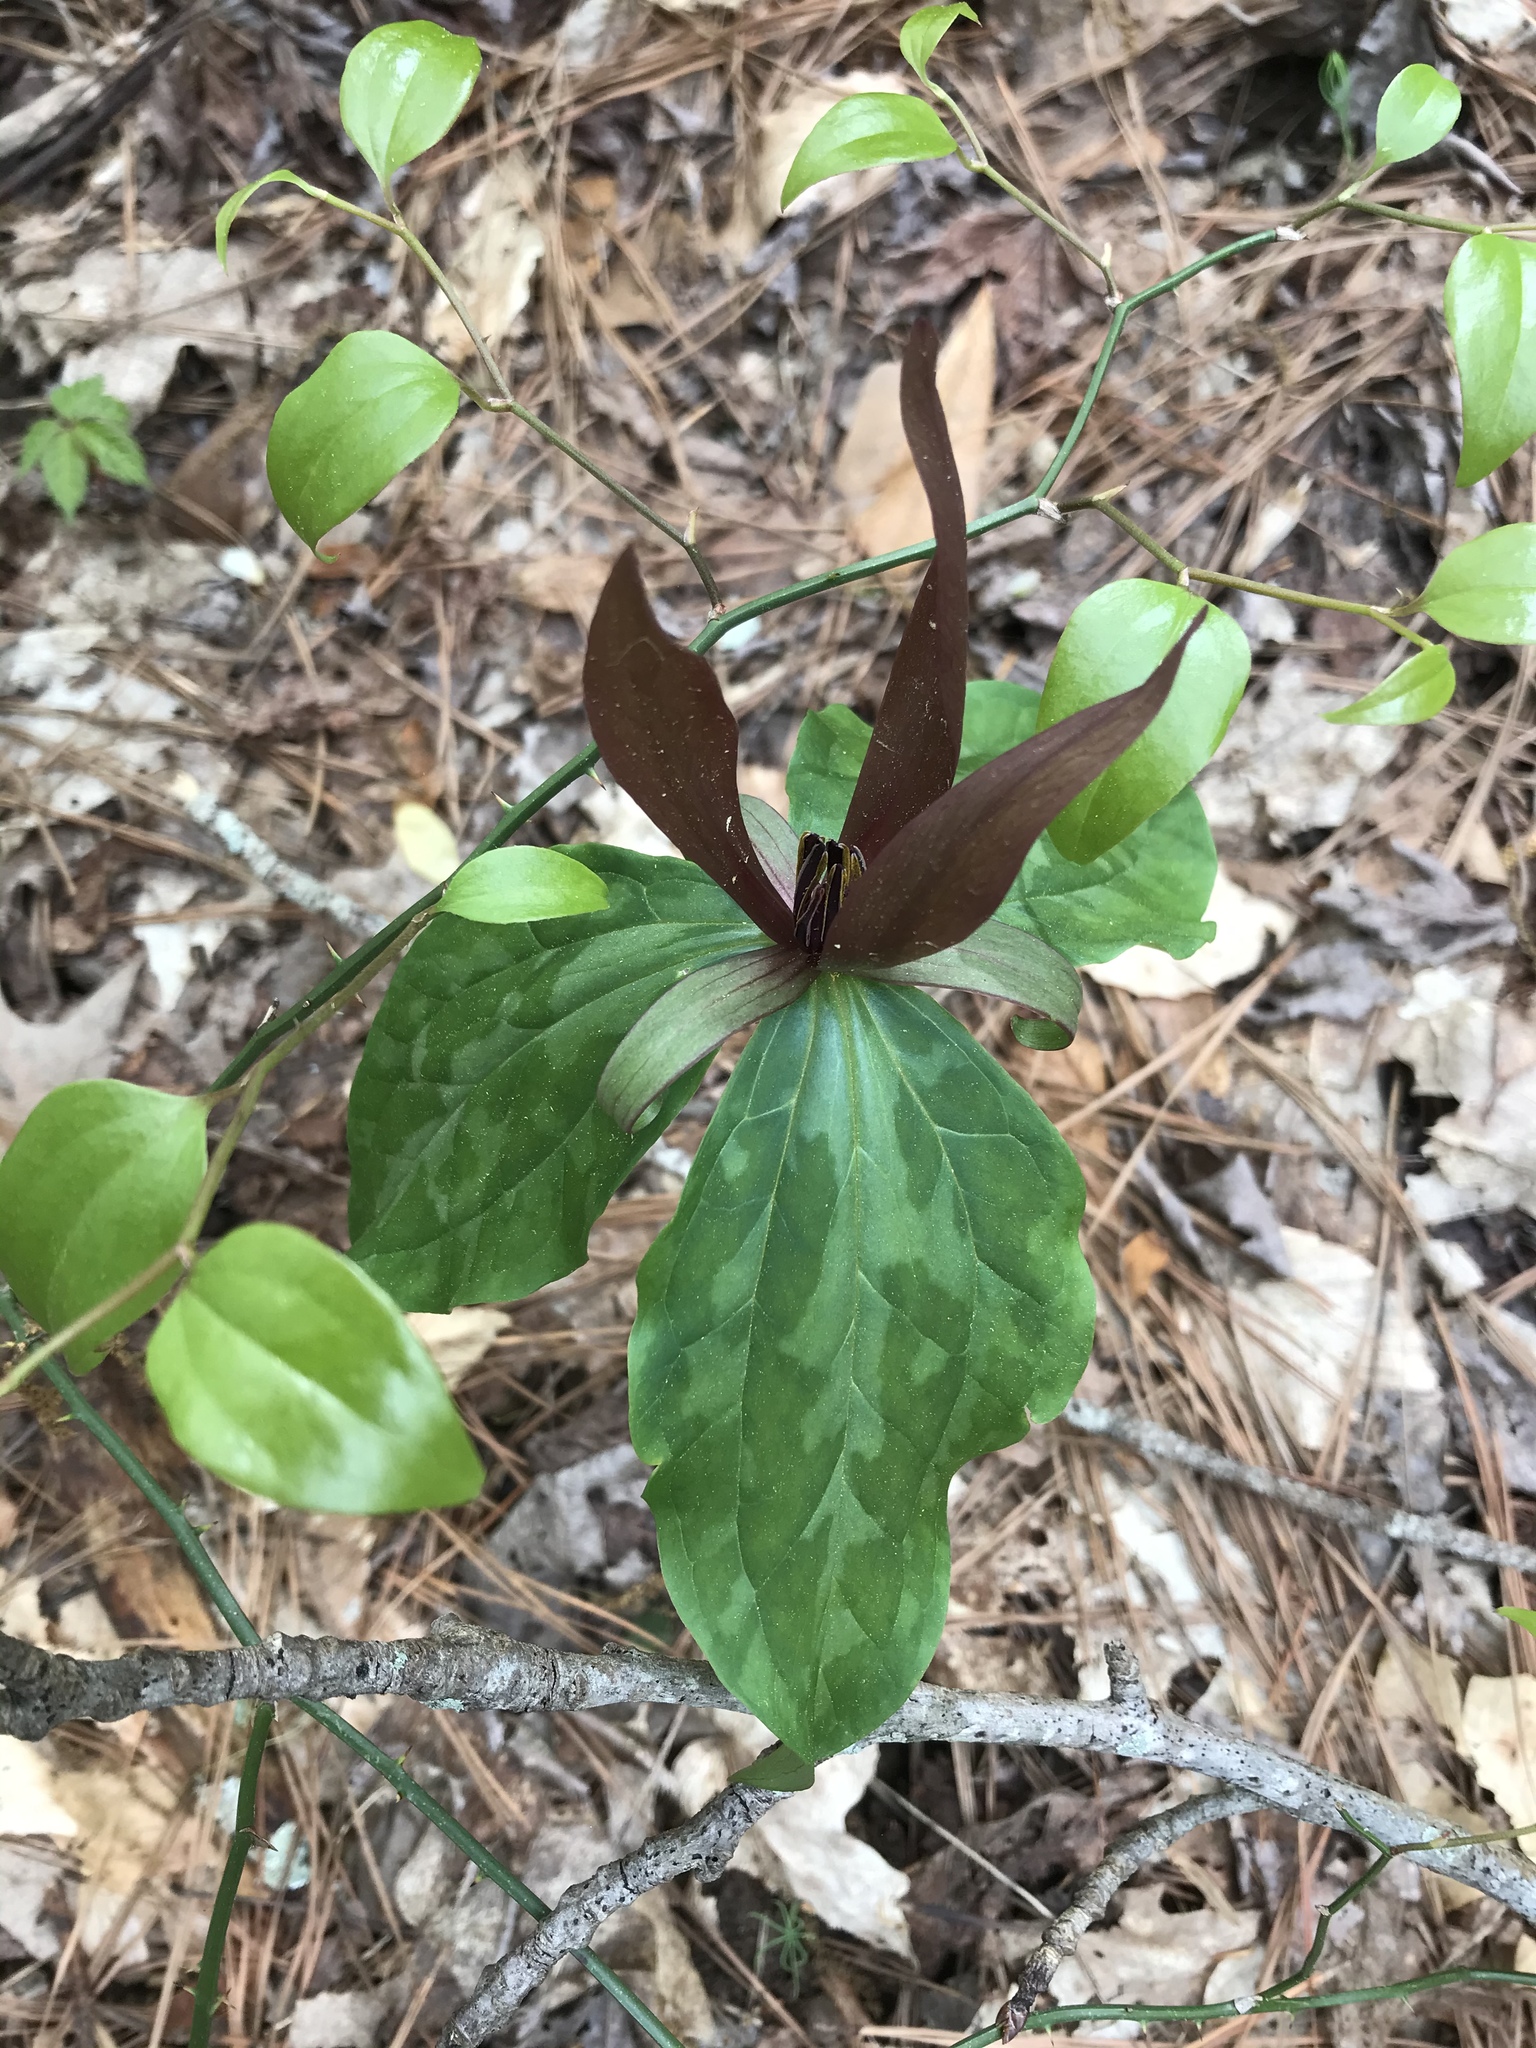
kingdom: Plantae
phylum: Tracheophyta
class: Liliopsida
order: Liliales
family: Melanthiaceae
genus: Trillium
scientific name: Trillium cuneatum
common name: Cuneate trillium
